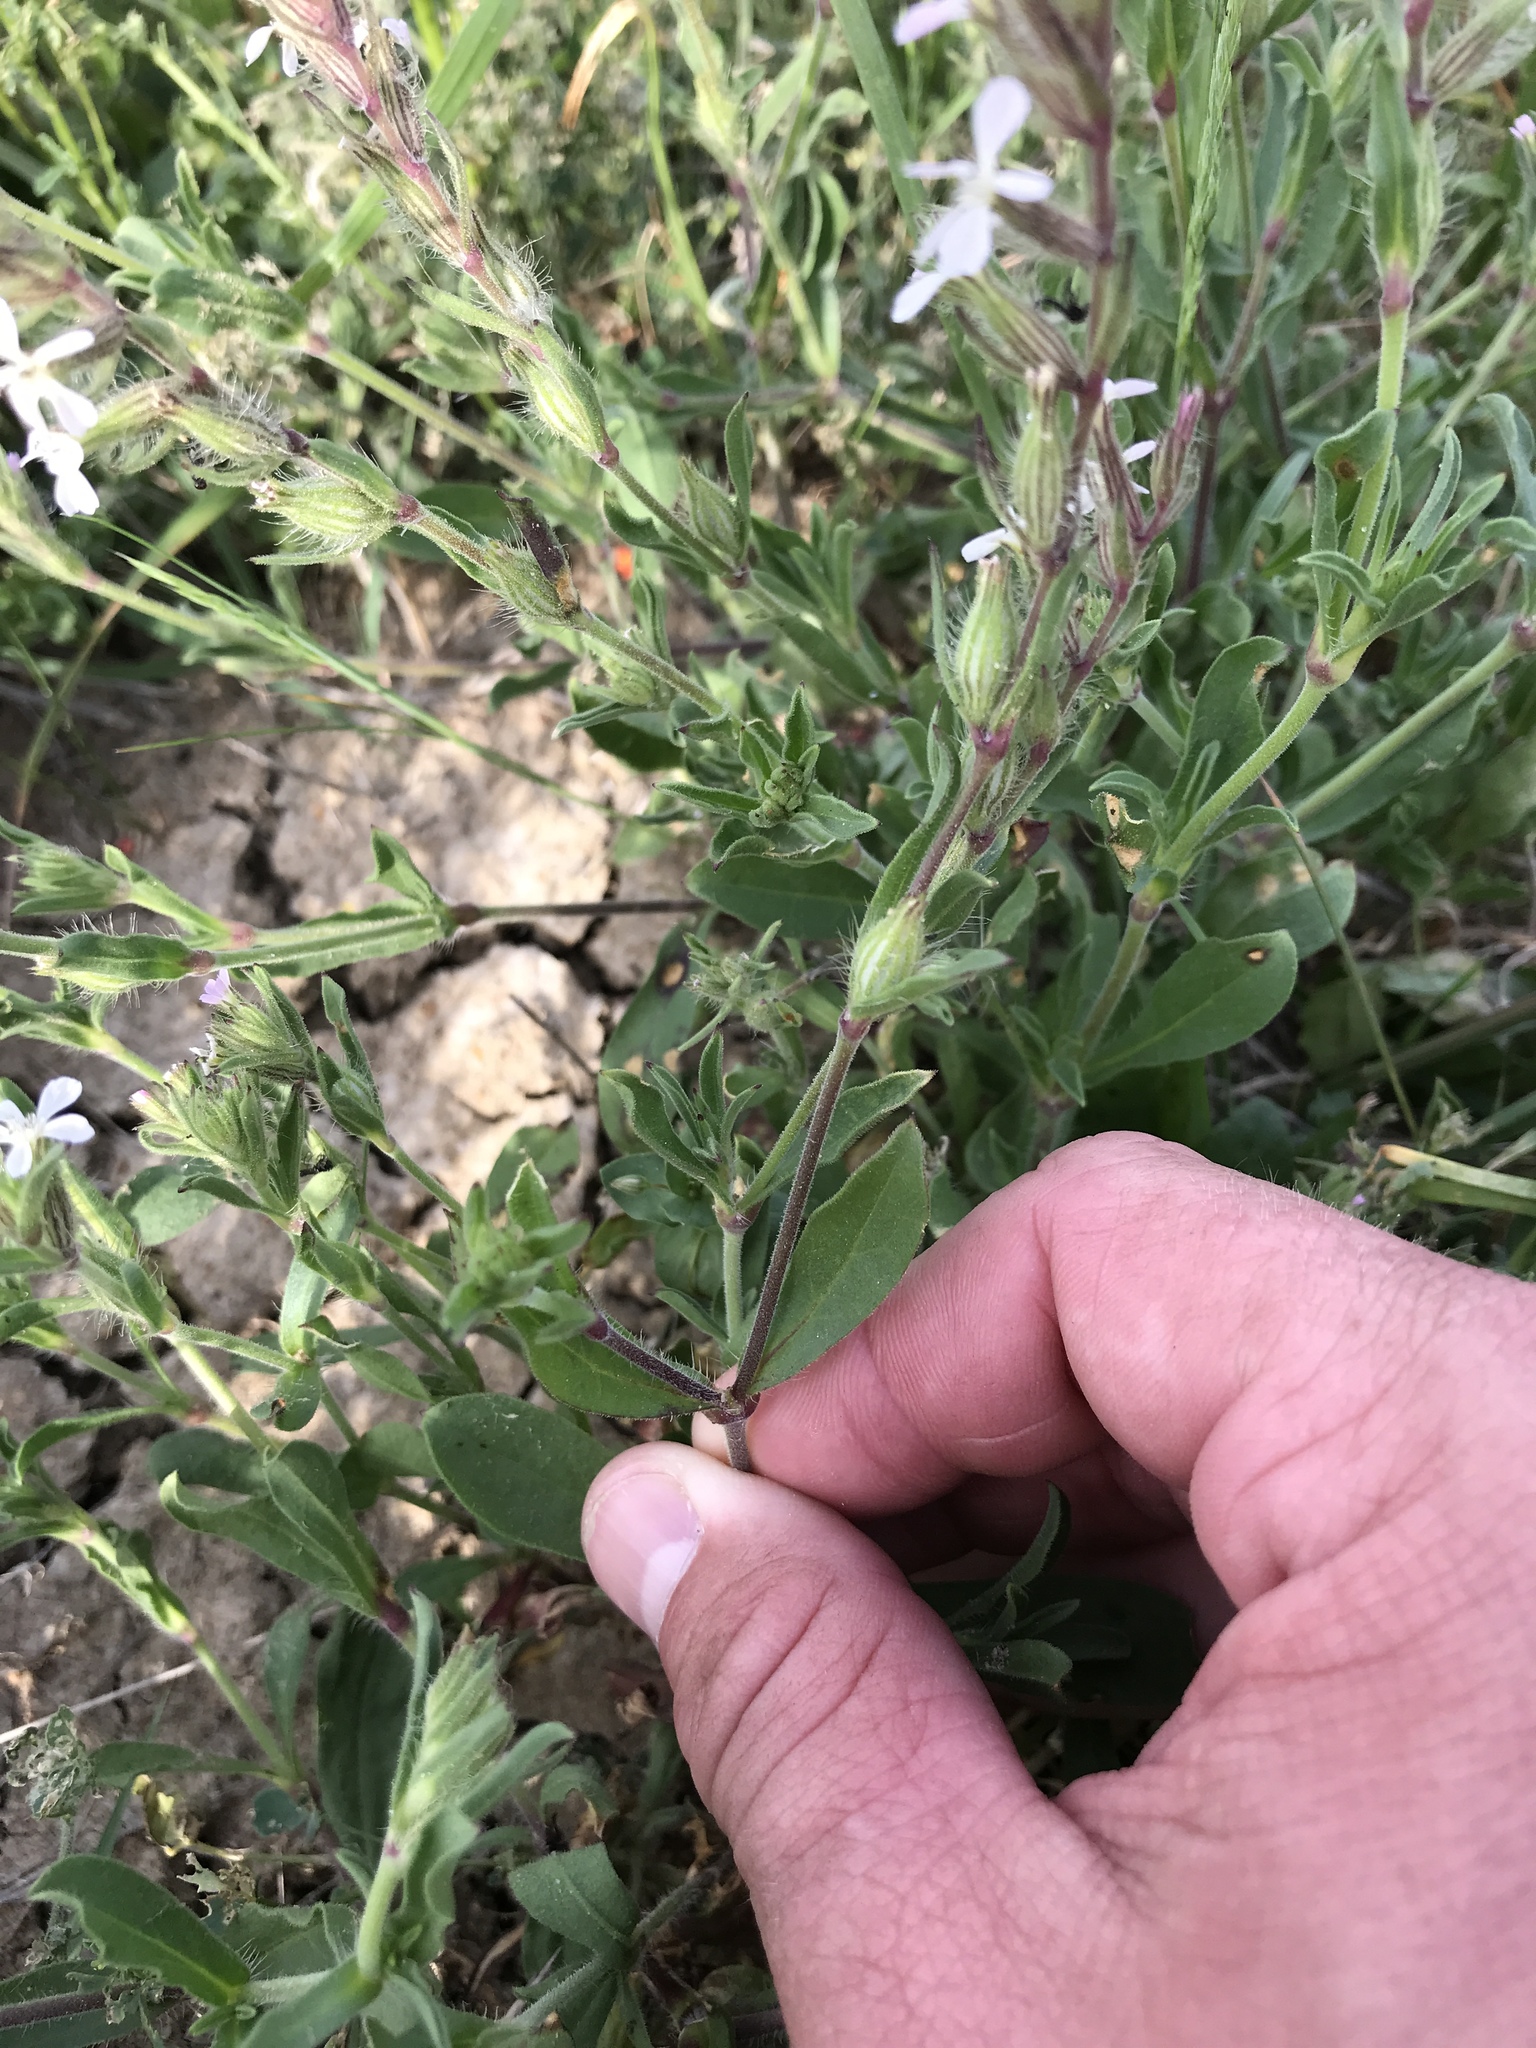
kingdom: Plantae
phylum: Tracheophyta
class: Magnoliopsida
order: Caryophyllales
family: Caryophyllaceae
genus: Silene
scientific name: Silene gallica
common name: Small-flowered catchfly
